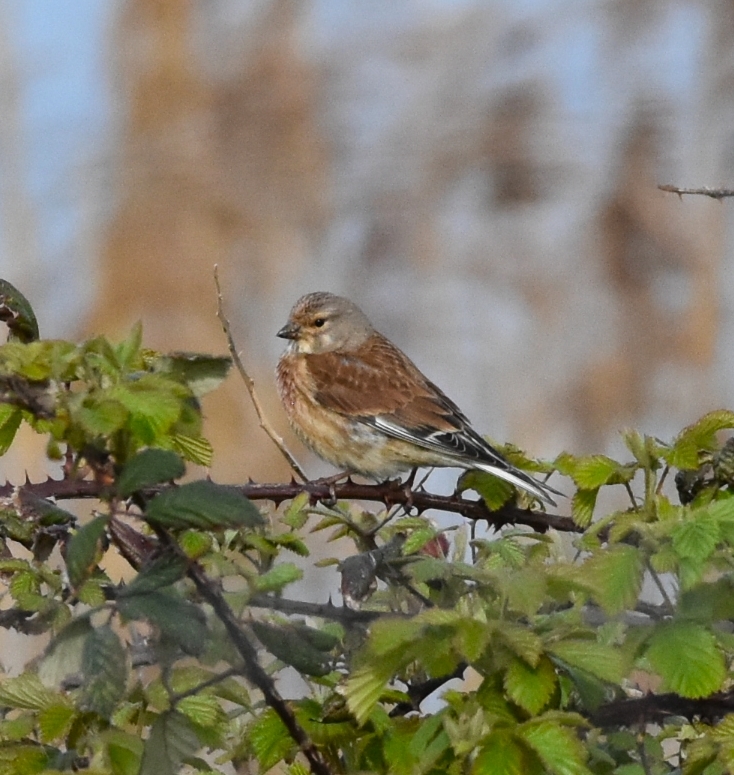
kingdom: Animalia
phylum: Chordata
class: Aves
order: Passeriformes
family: Fringillidae
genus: Linaria
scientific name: Linaria cannabina
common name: Common linnet
